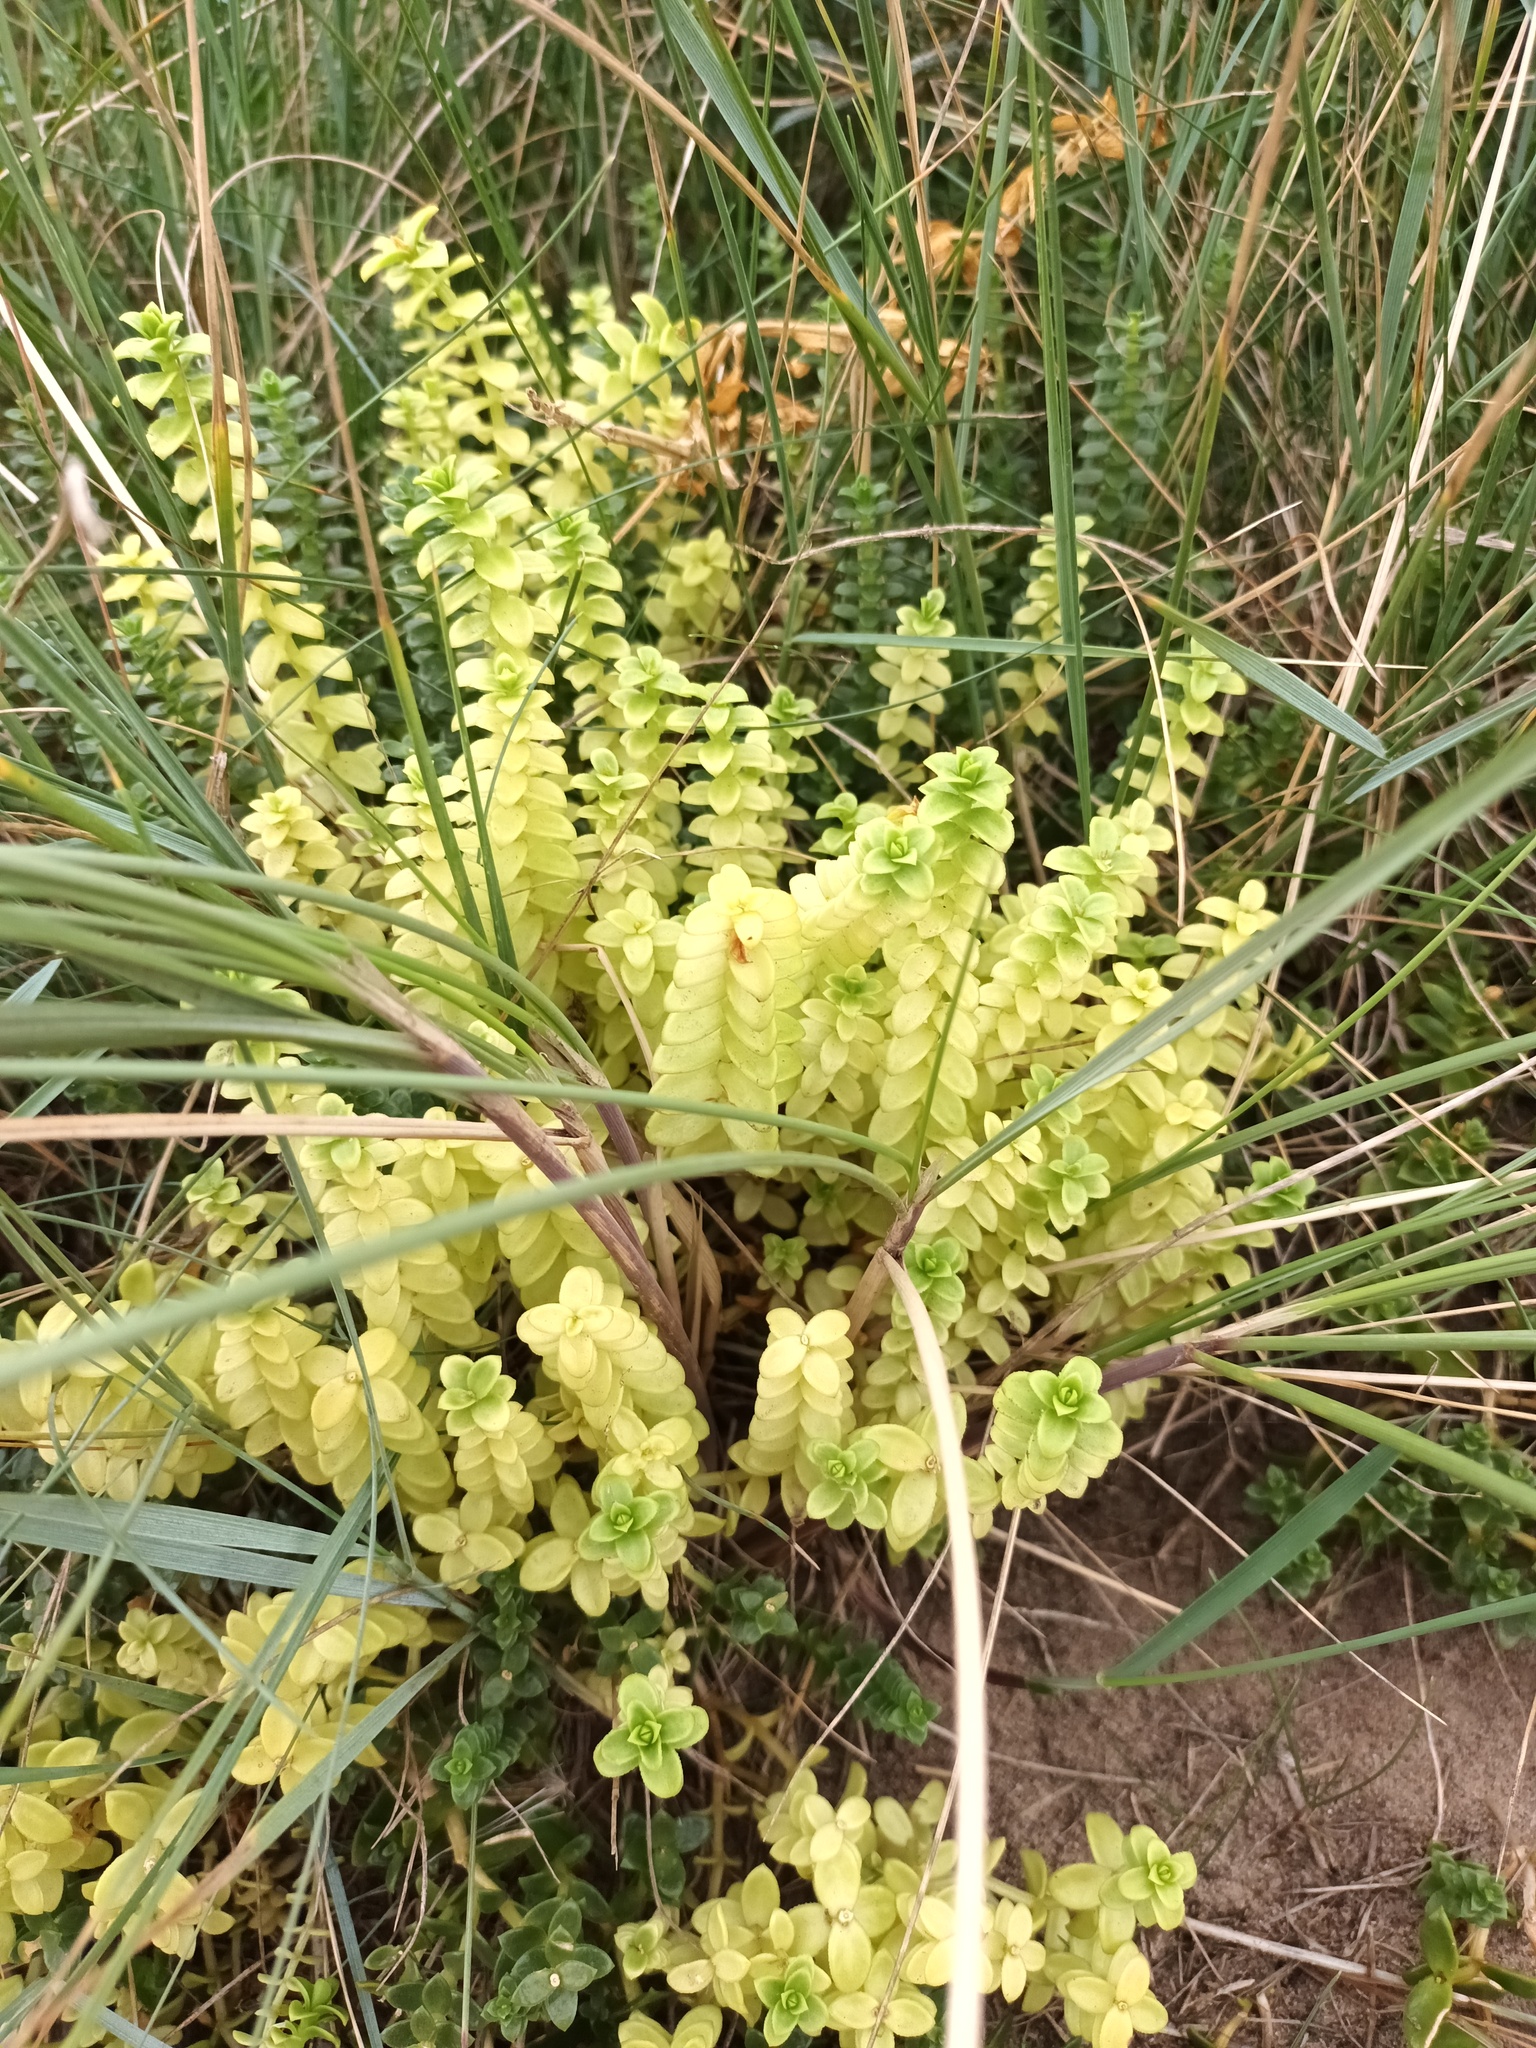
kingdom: Plantae
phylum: Tracheophyta
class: Magnoliopsida
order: Caryophyllales
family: Caryophyllaceae
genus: Honckenya
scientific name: Honckenya peploides
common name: Sea sandwort
